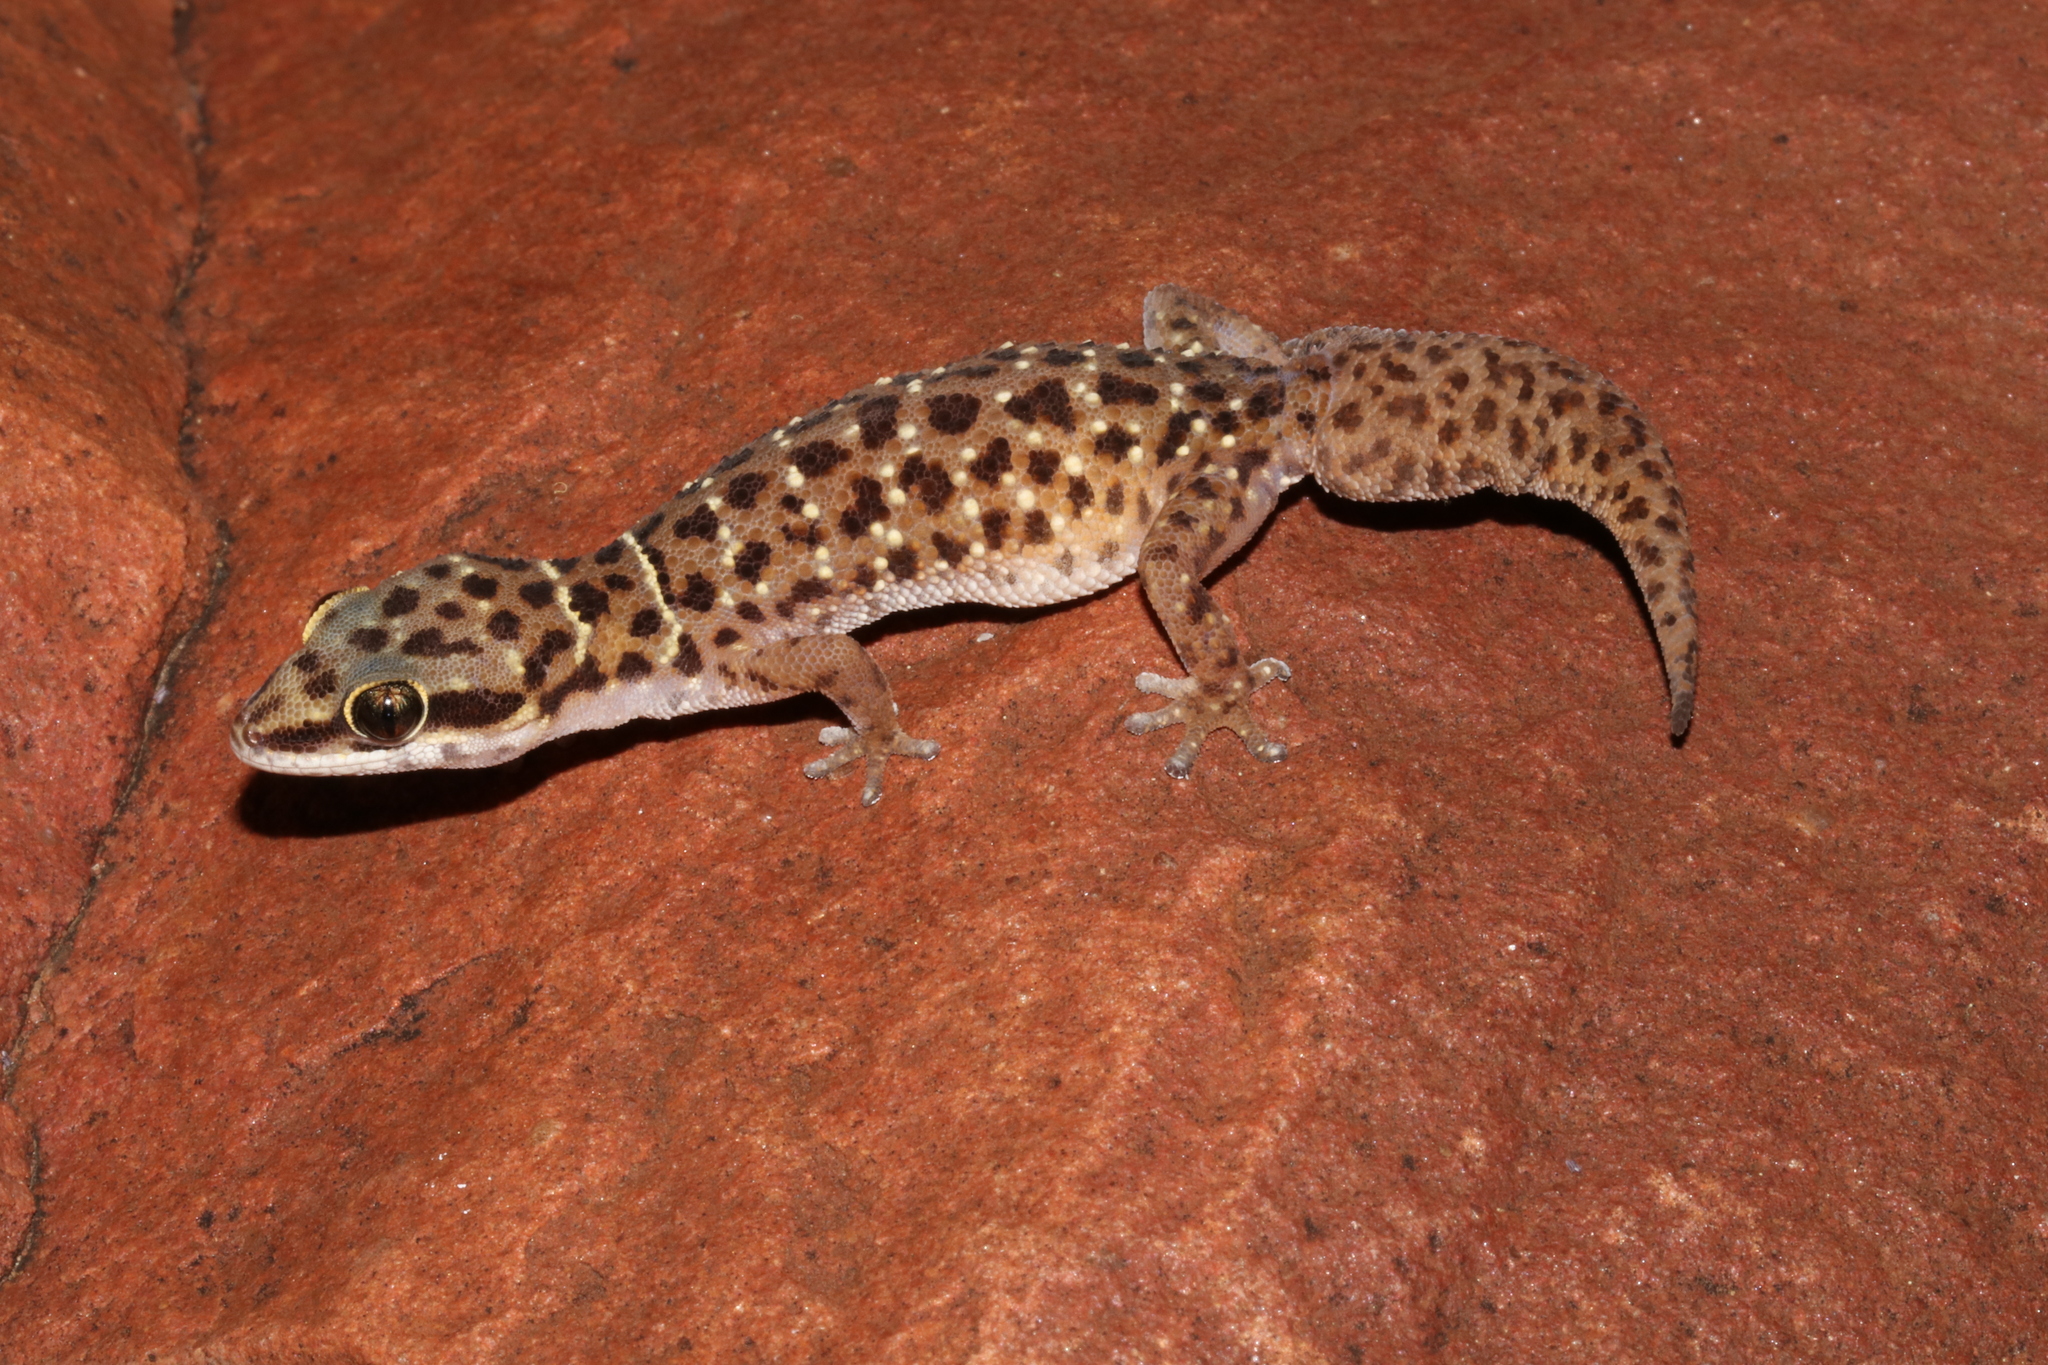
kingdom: Animalia
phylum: Chordata
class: Squamata
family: Gekkonidae
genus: Pachydactylus
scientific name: Pachydactylus affinis
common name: Transvaal gecko
